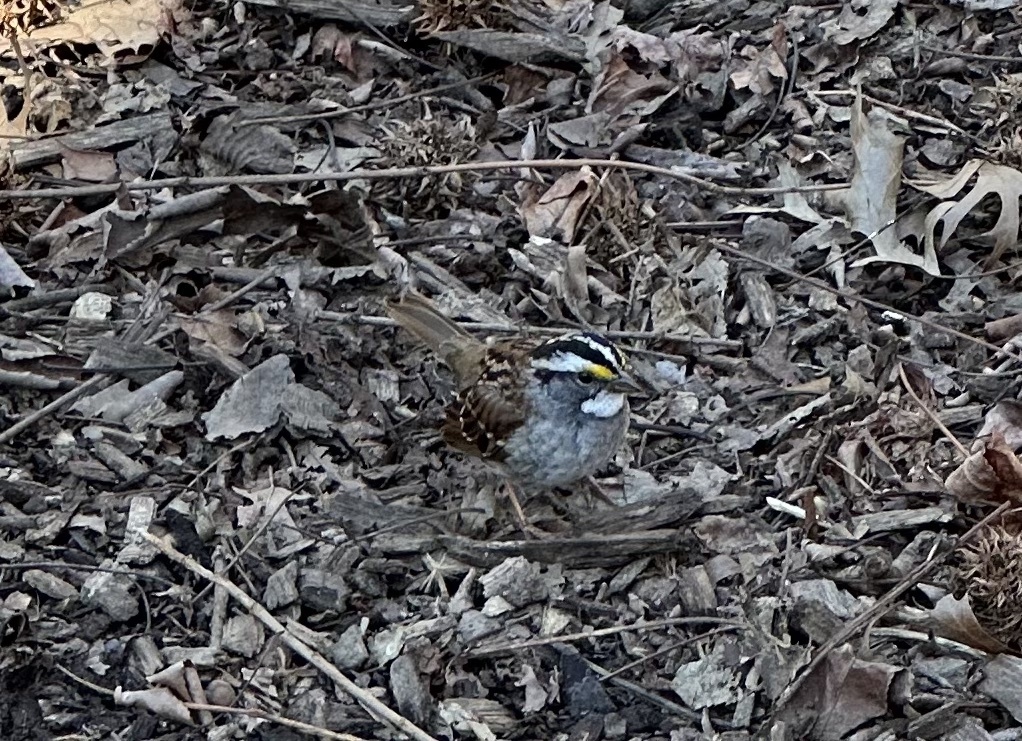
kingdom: Animalia
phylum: Chordata
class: Aves
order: Passeriformes
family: Passerellidae
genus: Zonotrichia
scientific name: Zonotrichia albicollis
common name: White-throated sparrow
